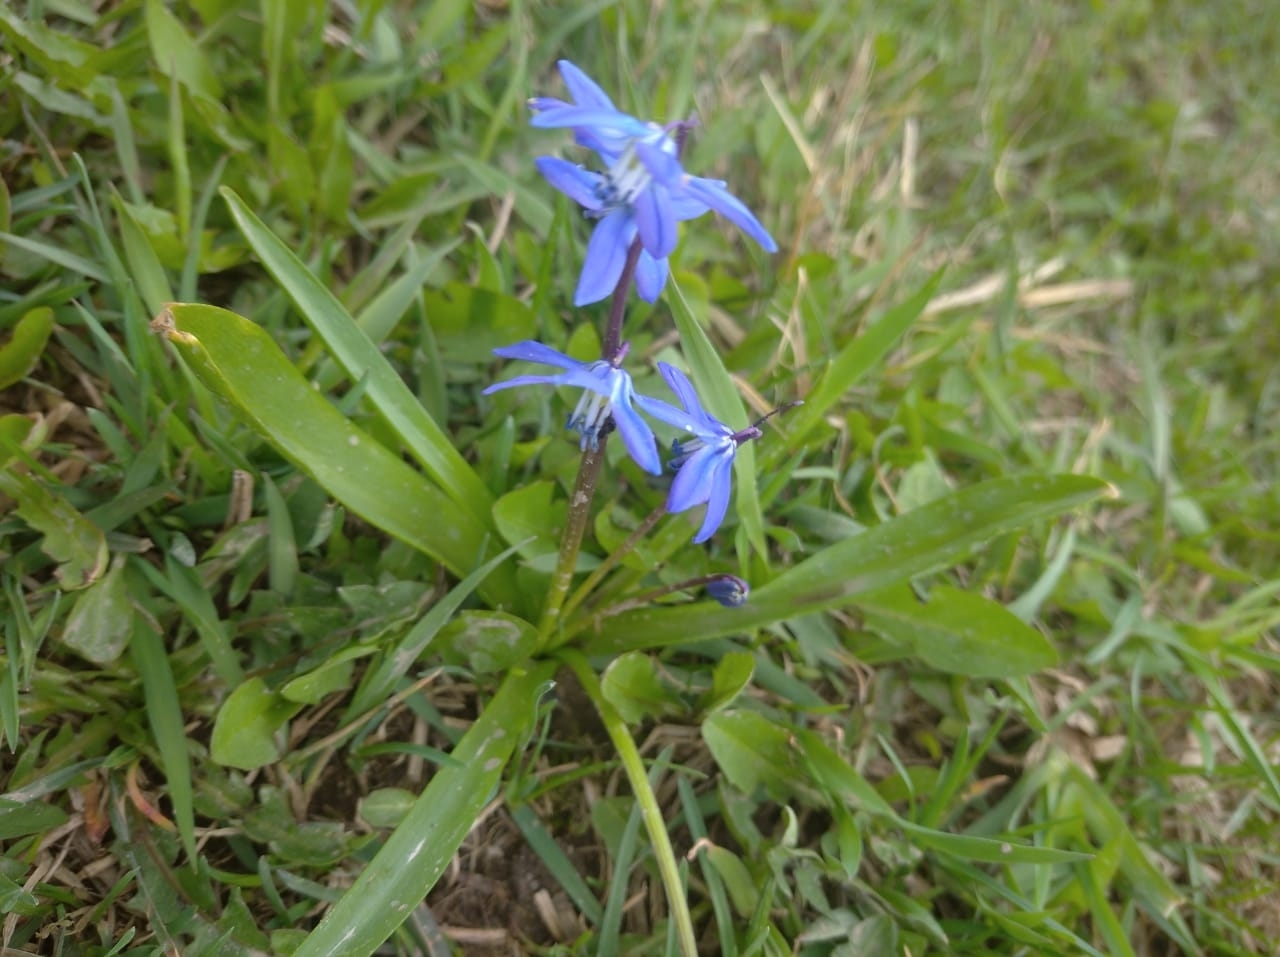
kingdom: Plantae
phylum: Tracheophyta
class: Liliopsida
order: Asparagales
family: Asparagaceae
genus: Scilla
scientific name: Scilla siberica
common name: Siberian squill
